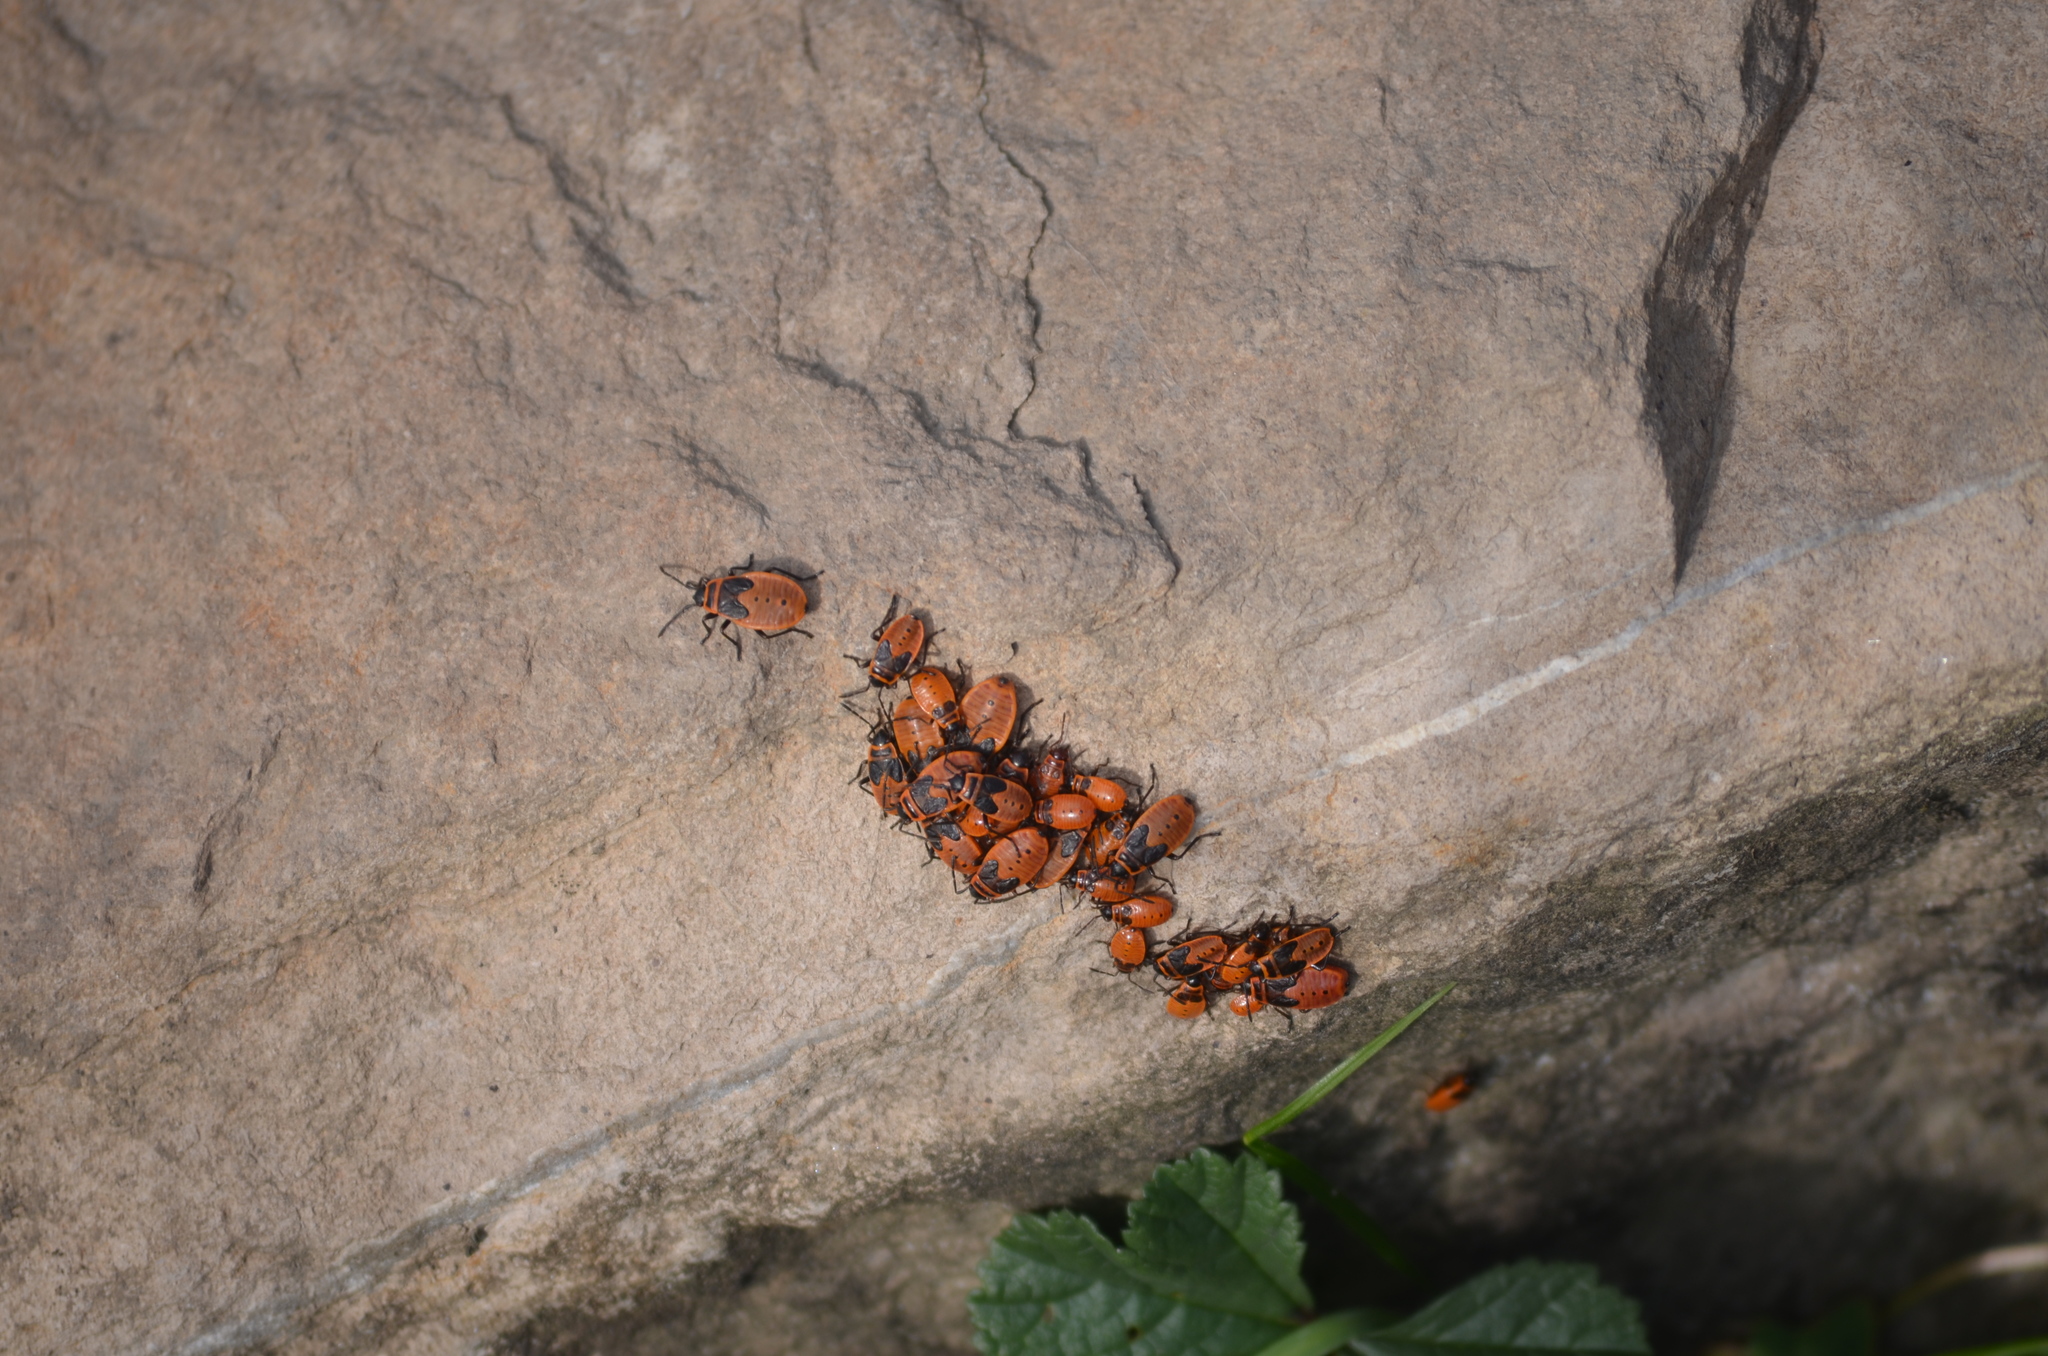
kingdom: Animalia
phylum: Arthropoda
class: Insecta
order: Hemiptera
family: Pyrrhocoridae
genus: Pyrrhocoris
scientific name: Pyrrhocoris apterus
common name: Firebug
